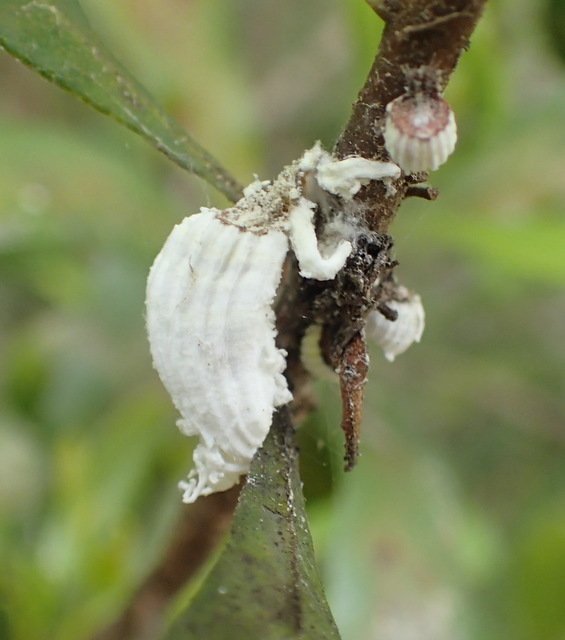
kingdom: Animalia
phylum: Arthropoda
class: Insecta
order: Hemiptera
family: Margarodidae
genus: Icerya
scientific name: Icerya purchasi
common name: Cottony cushion scale
